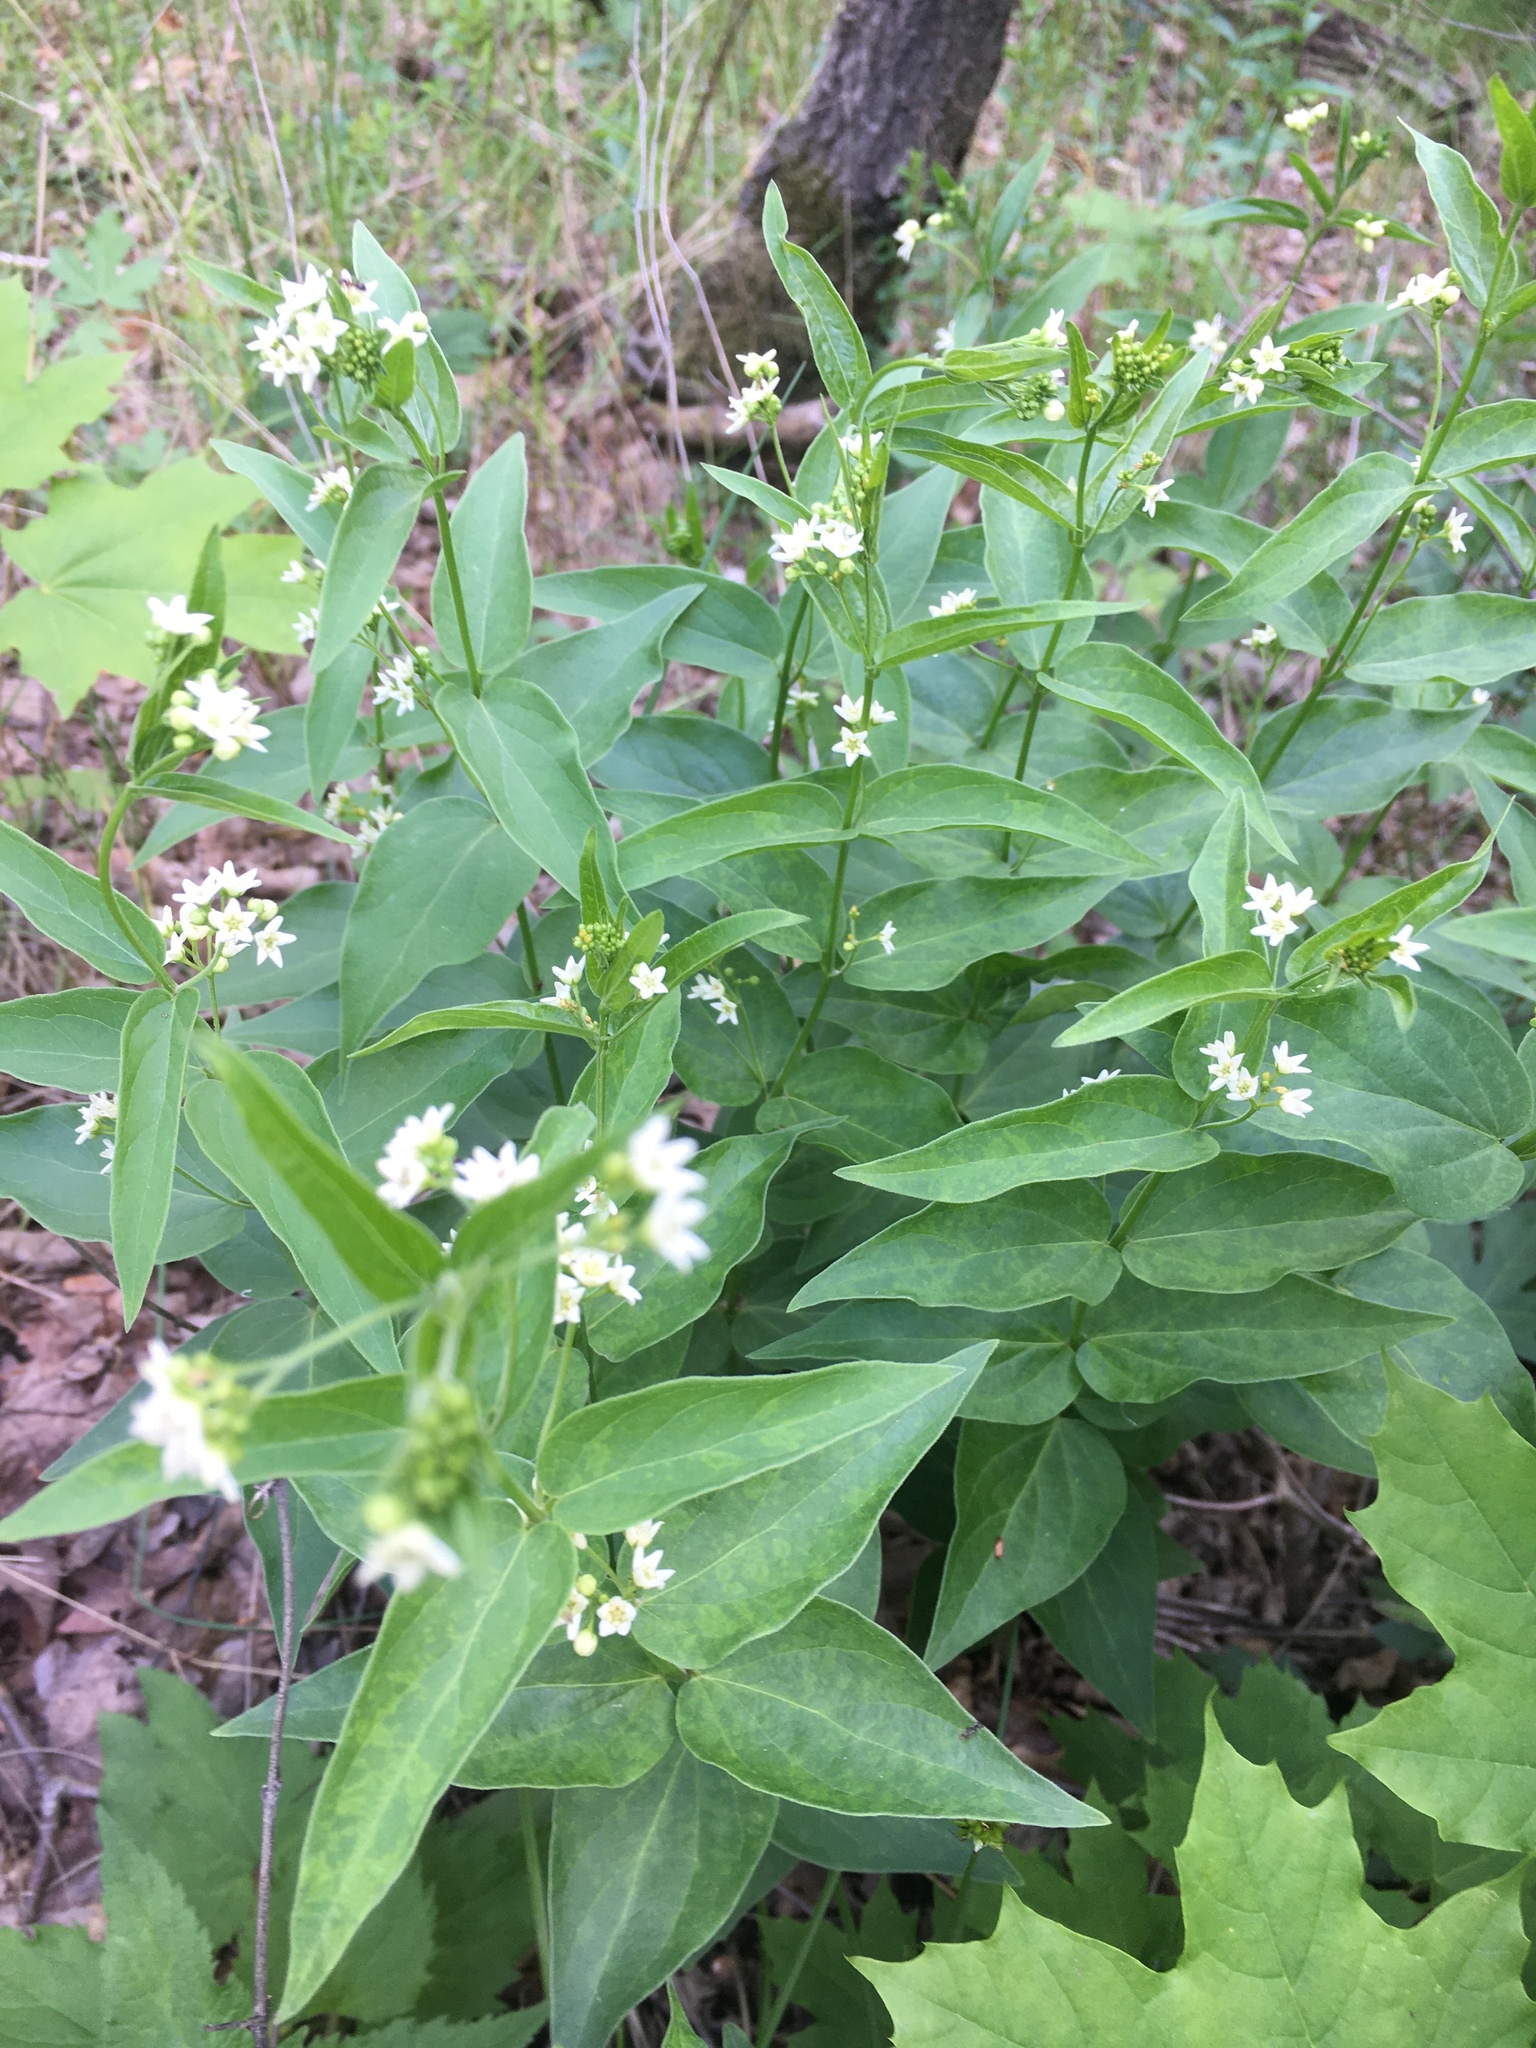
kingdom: Plantae
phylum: Tracheophyta
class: Magnoliopsida
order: Gentianales
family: Apocynaceae
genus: Vincetoxicum
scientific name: Vincetoxicum hirundinaria
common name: White swallowwort
